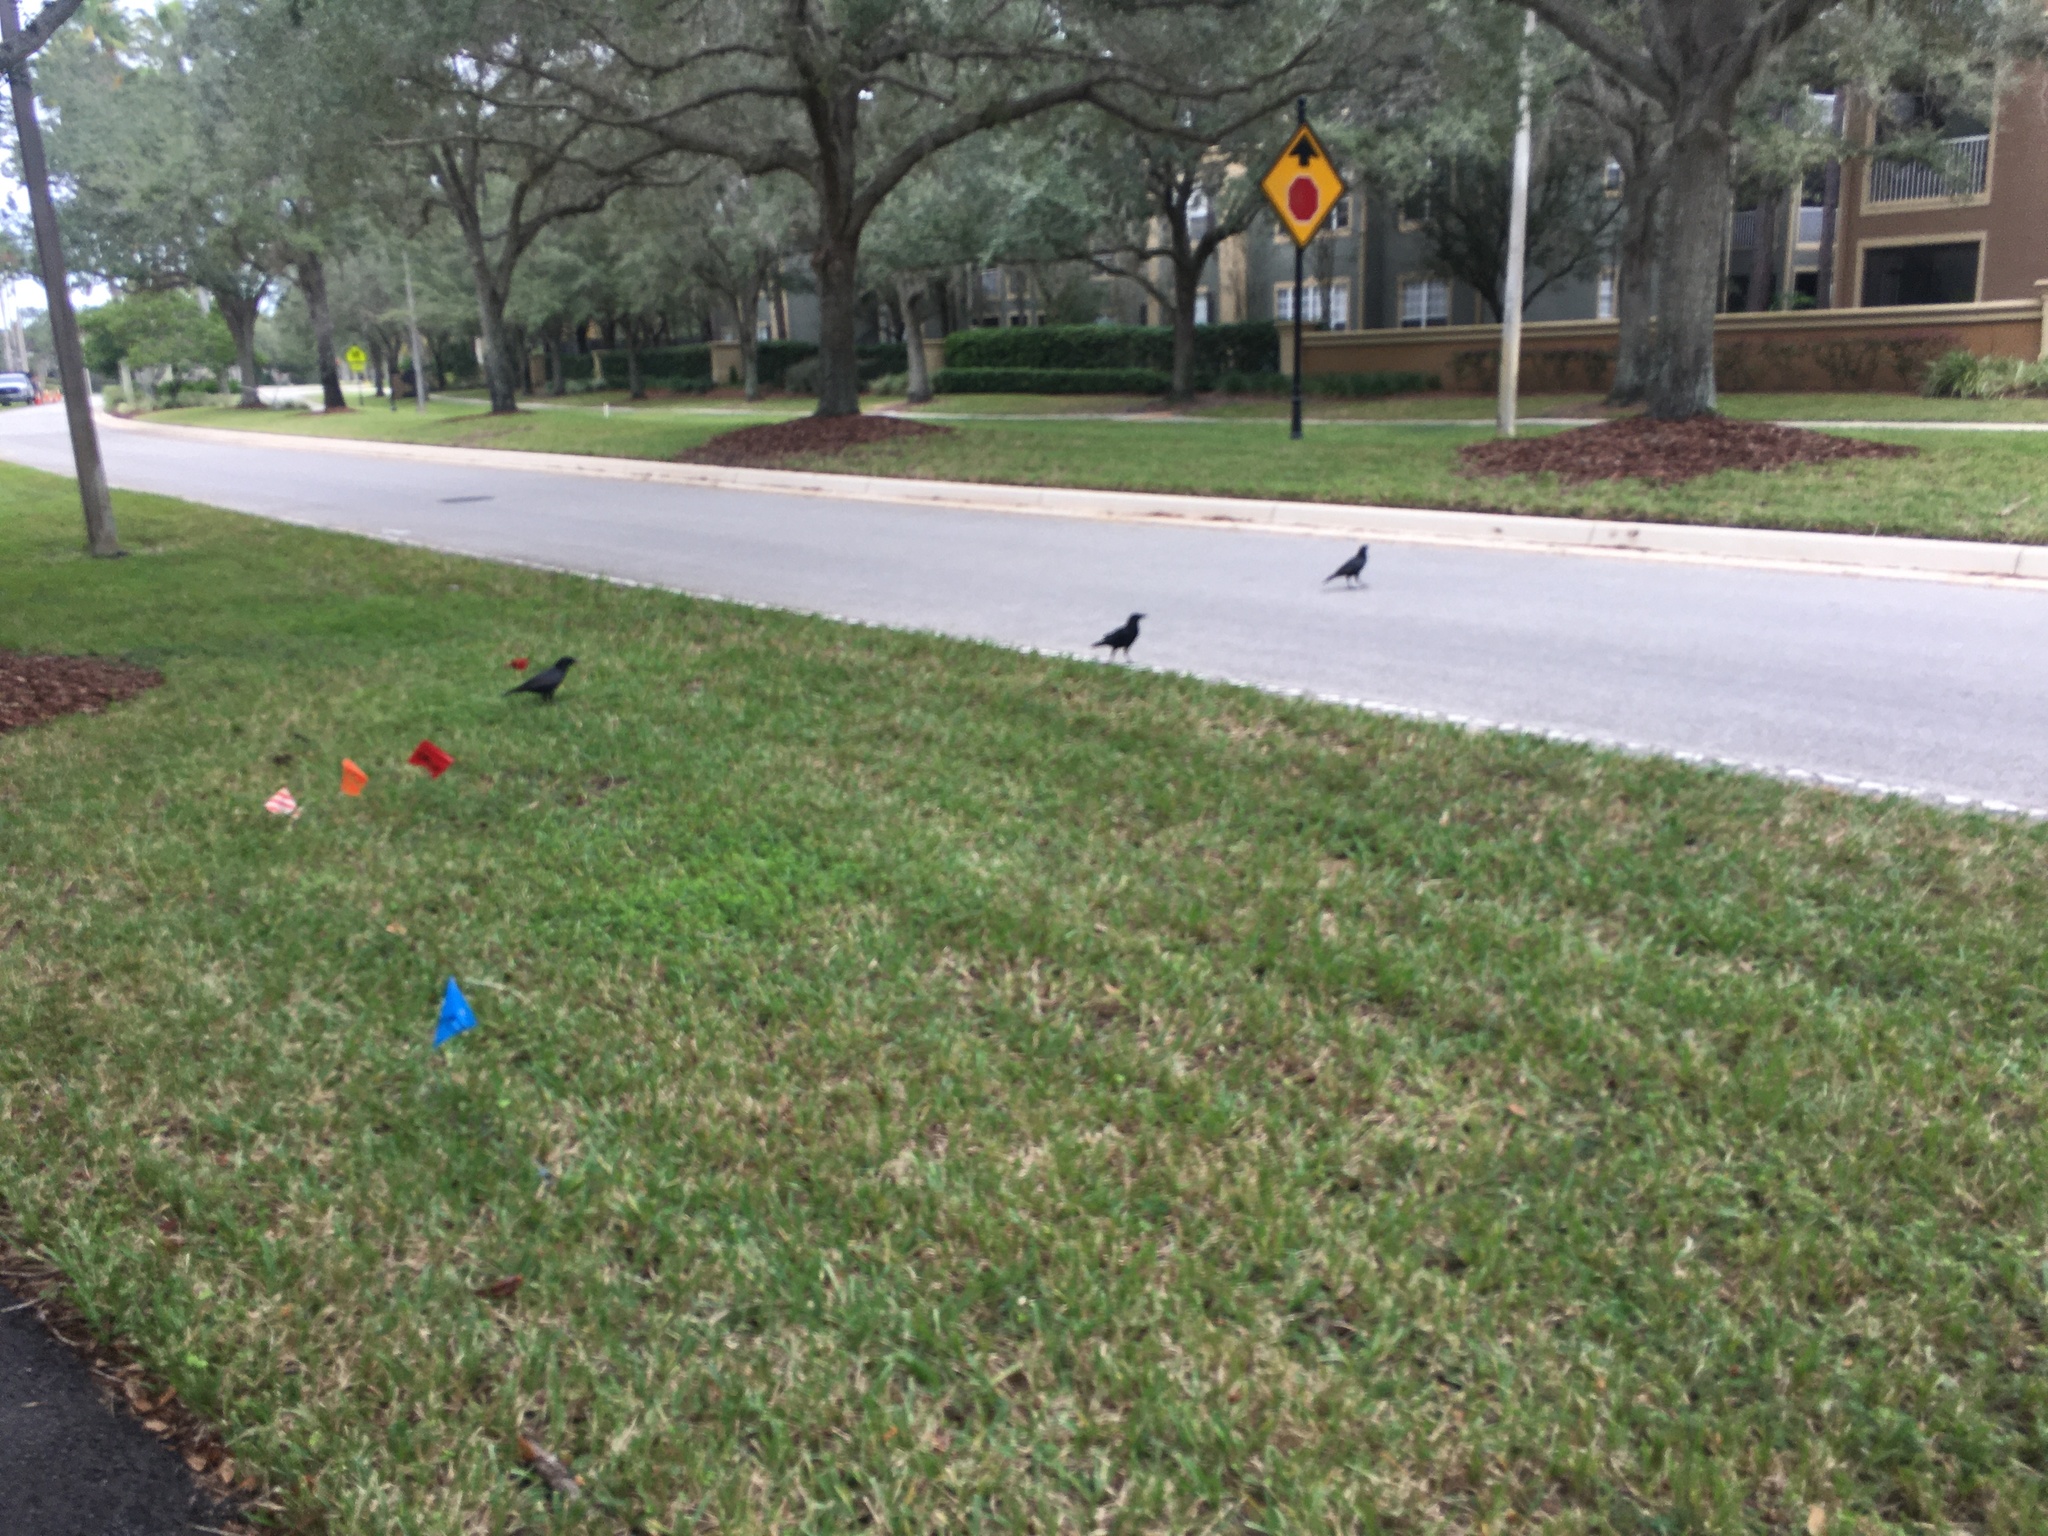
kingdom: Animalia
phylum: Chordata
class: Aves
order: Passeriformes
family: Corvidae
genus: Corvus
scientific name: Corvus
